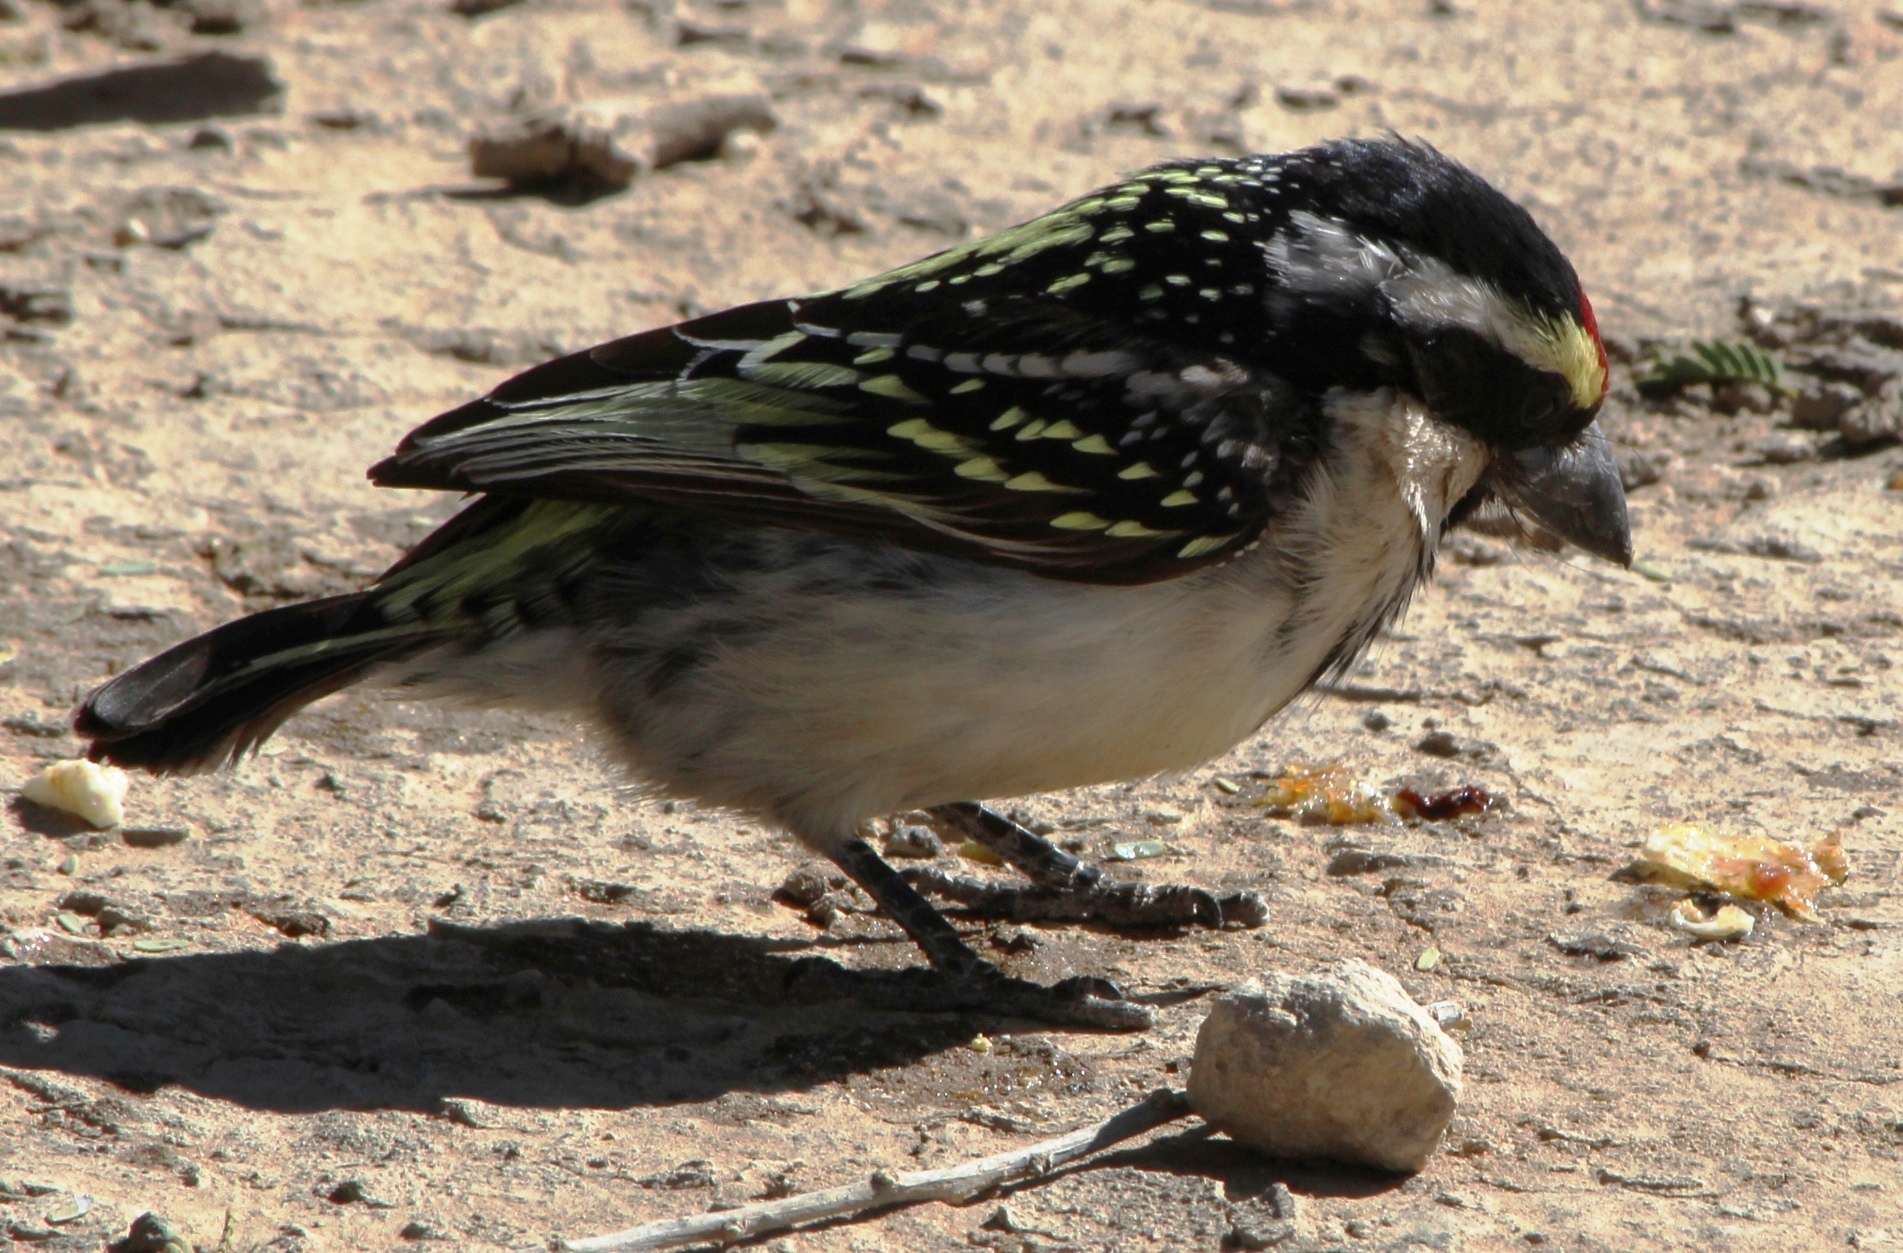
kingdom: Animalia
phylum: Chordata
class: Aves
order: Piciformes
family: Lybiidae
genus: Tricholaema
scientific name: Tricholaema leucomelas
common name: Acacia pied barbet
